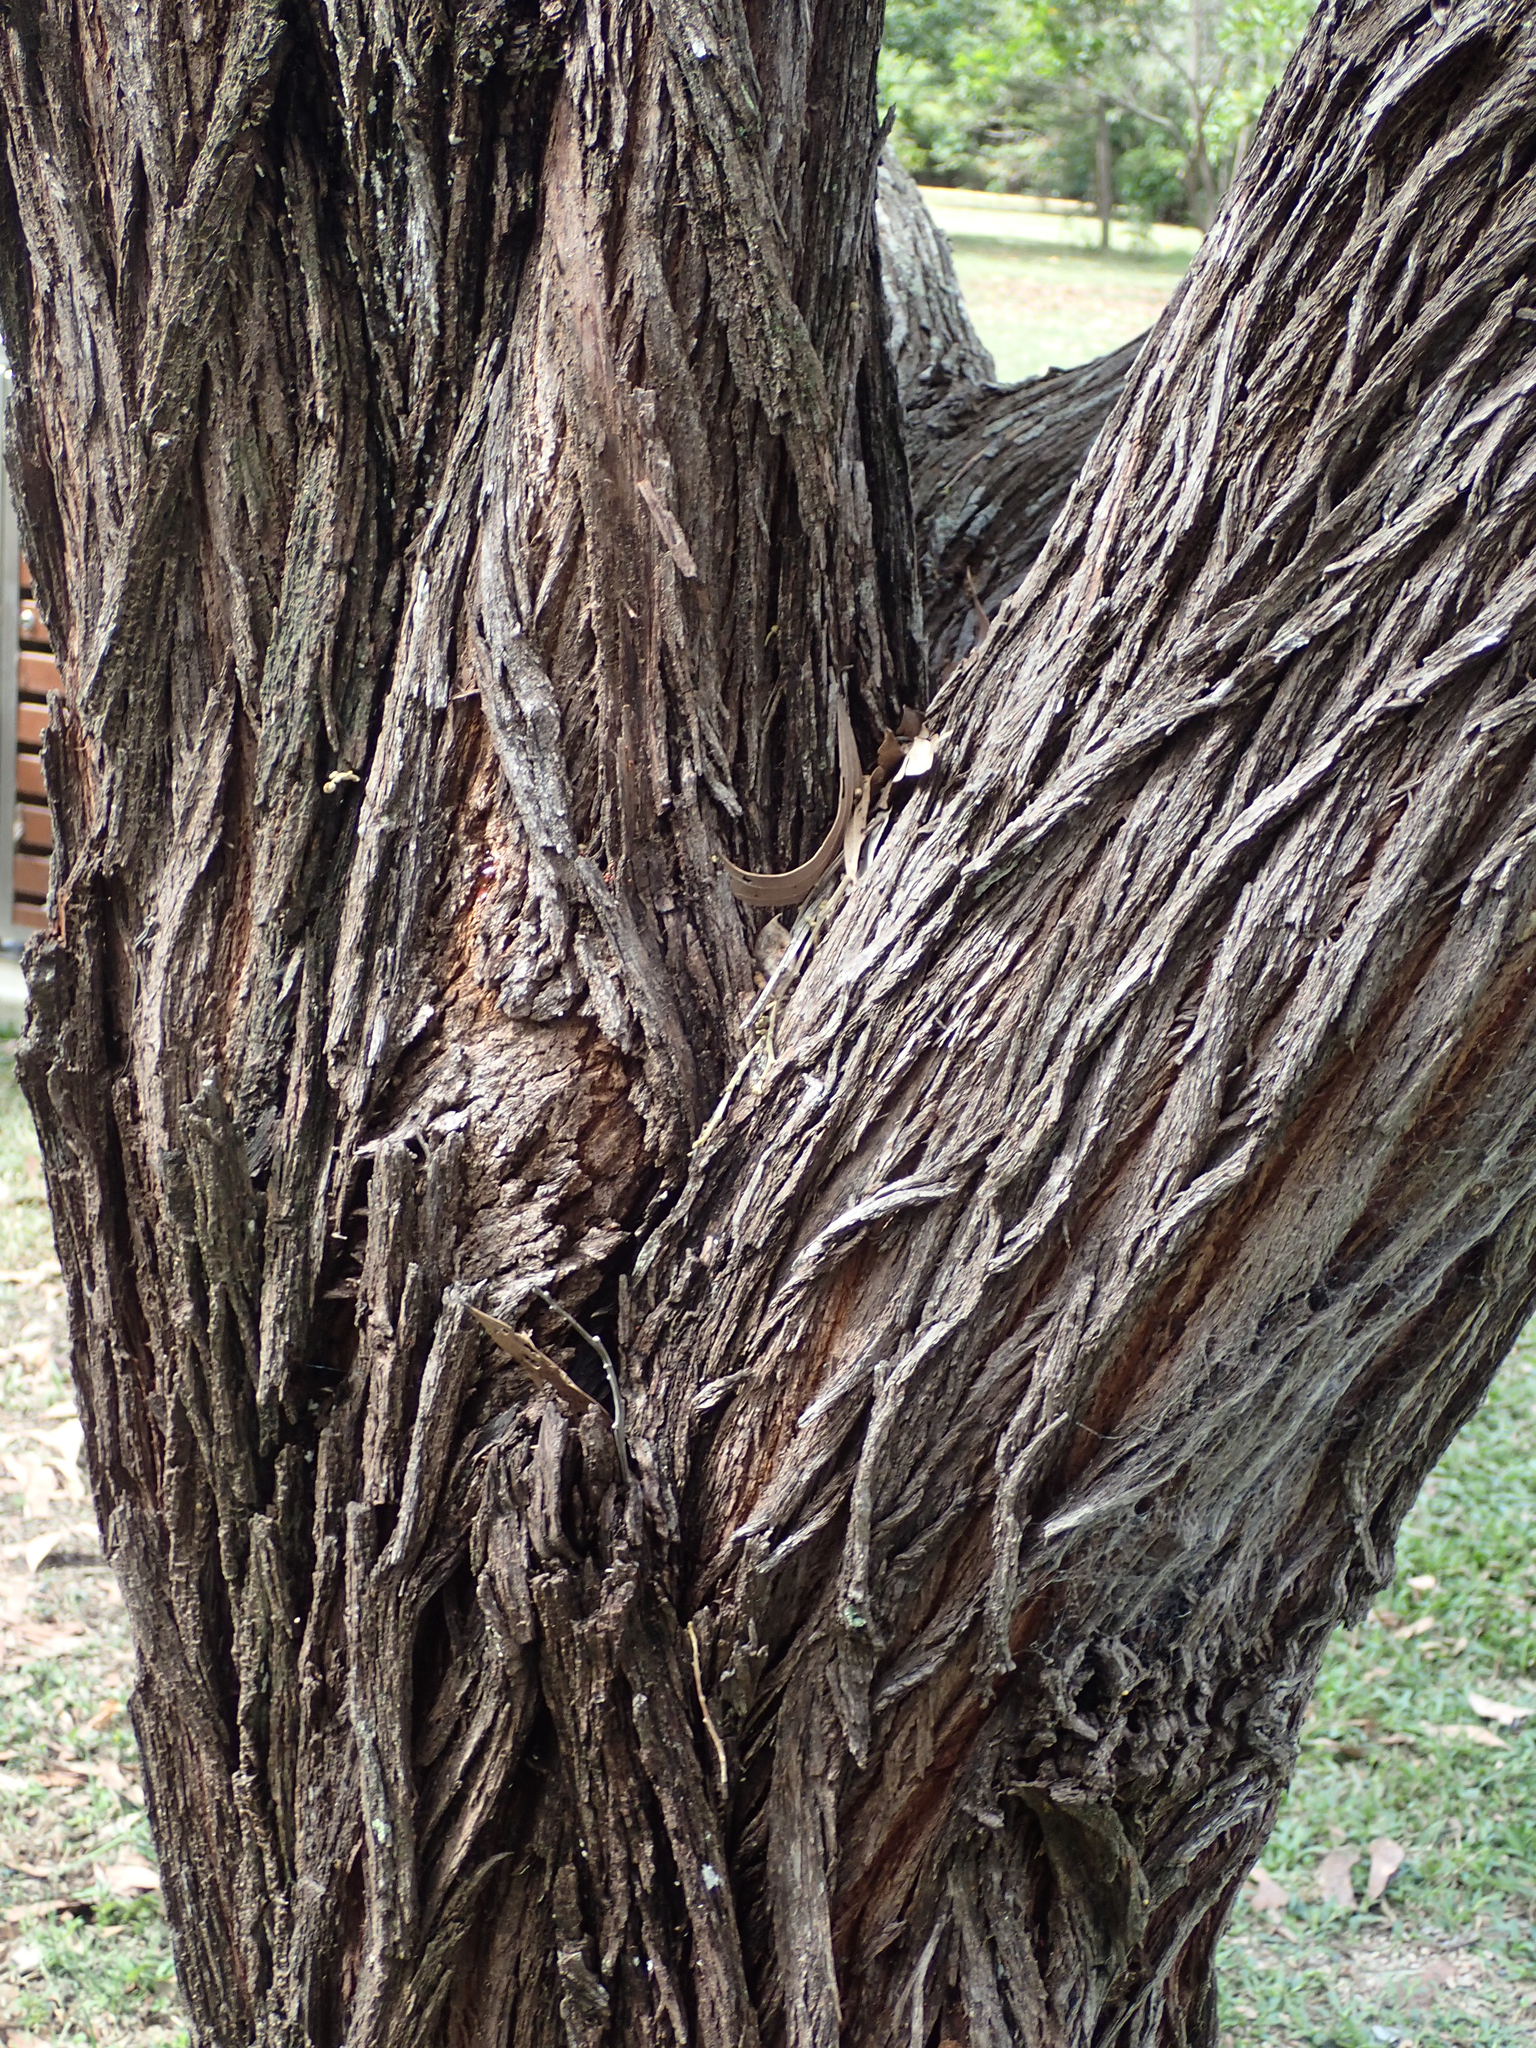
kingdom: Plantae
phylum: Tracheophyta
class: Magnoliopsida
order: Fabales
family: Fabaceae
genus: Acacia
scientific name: Acacia flavescens
